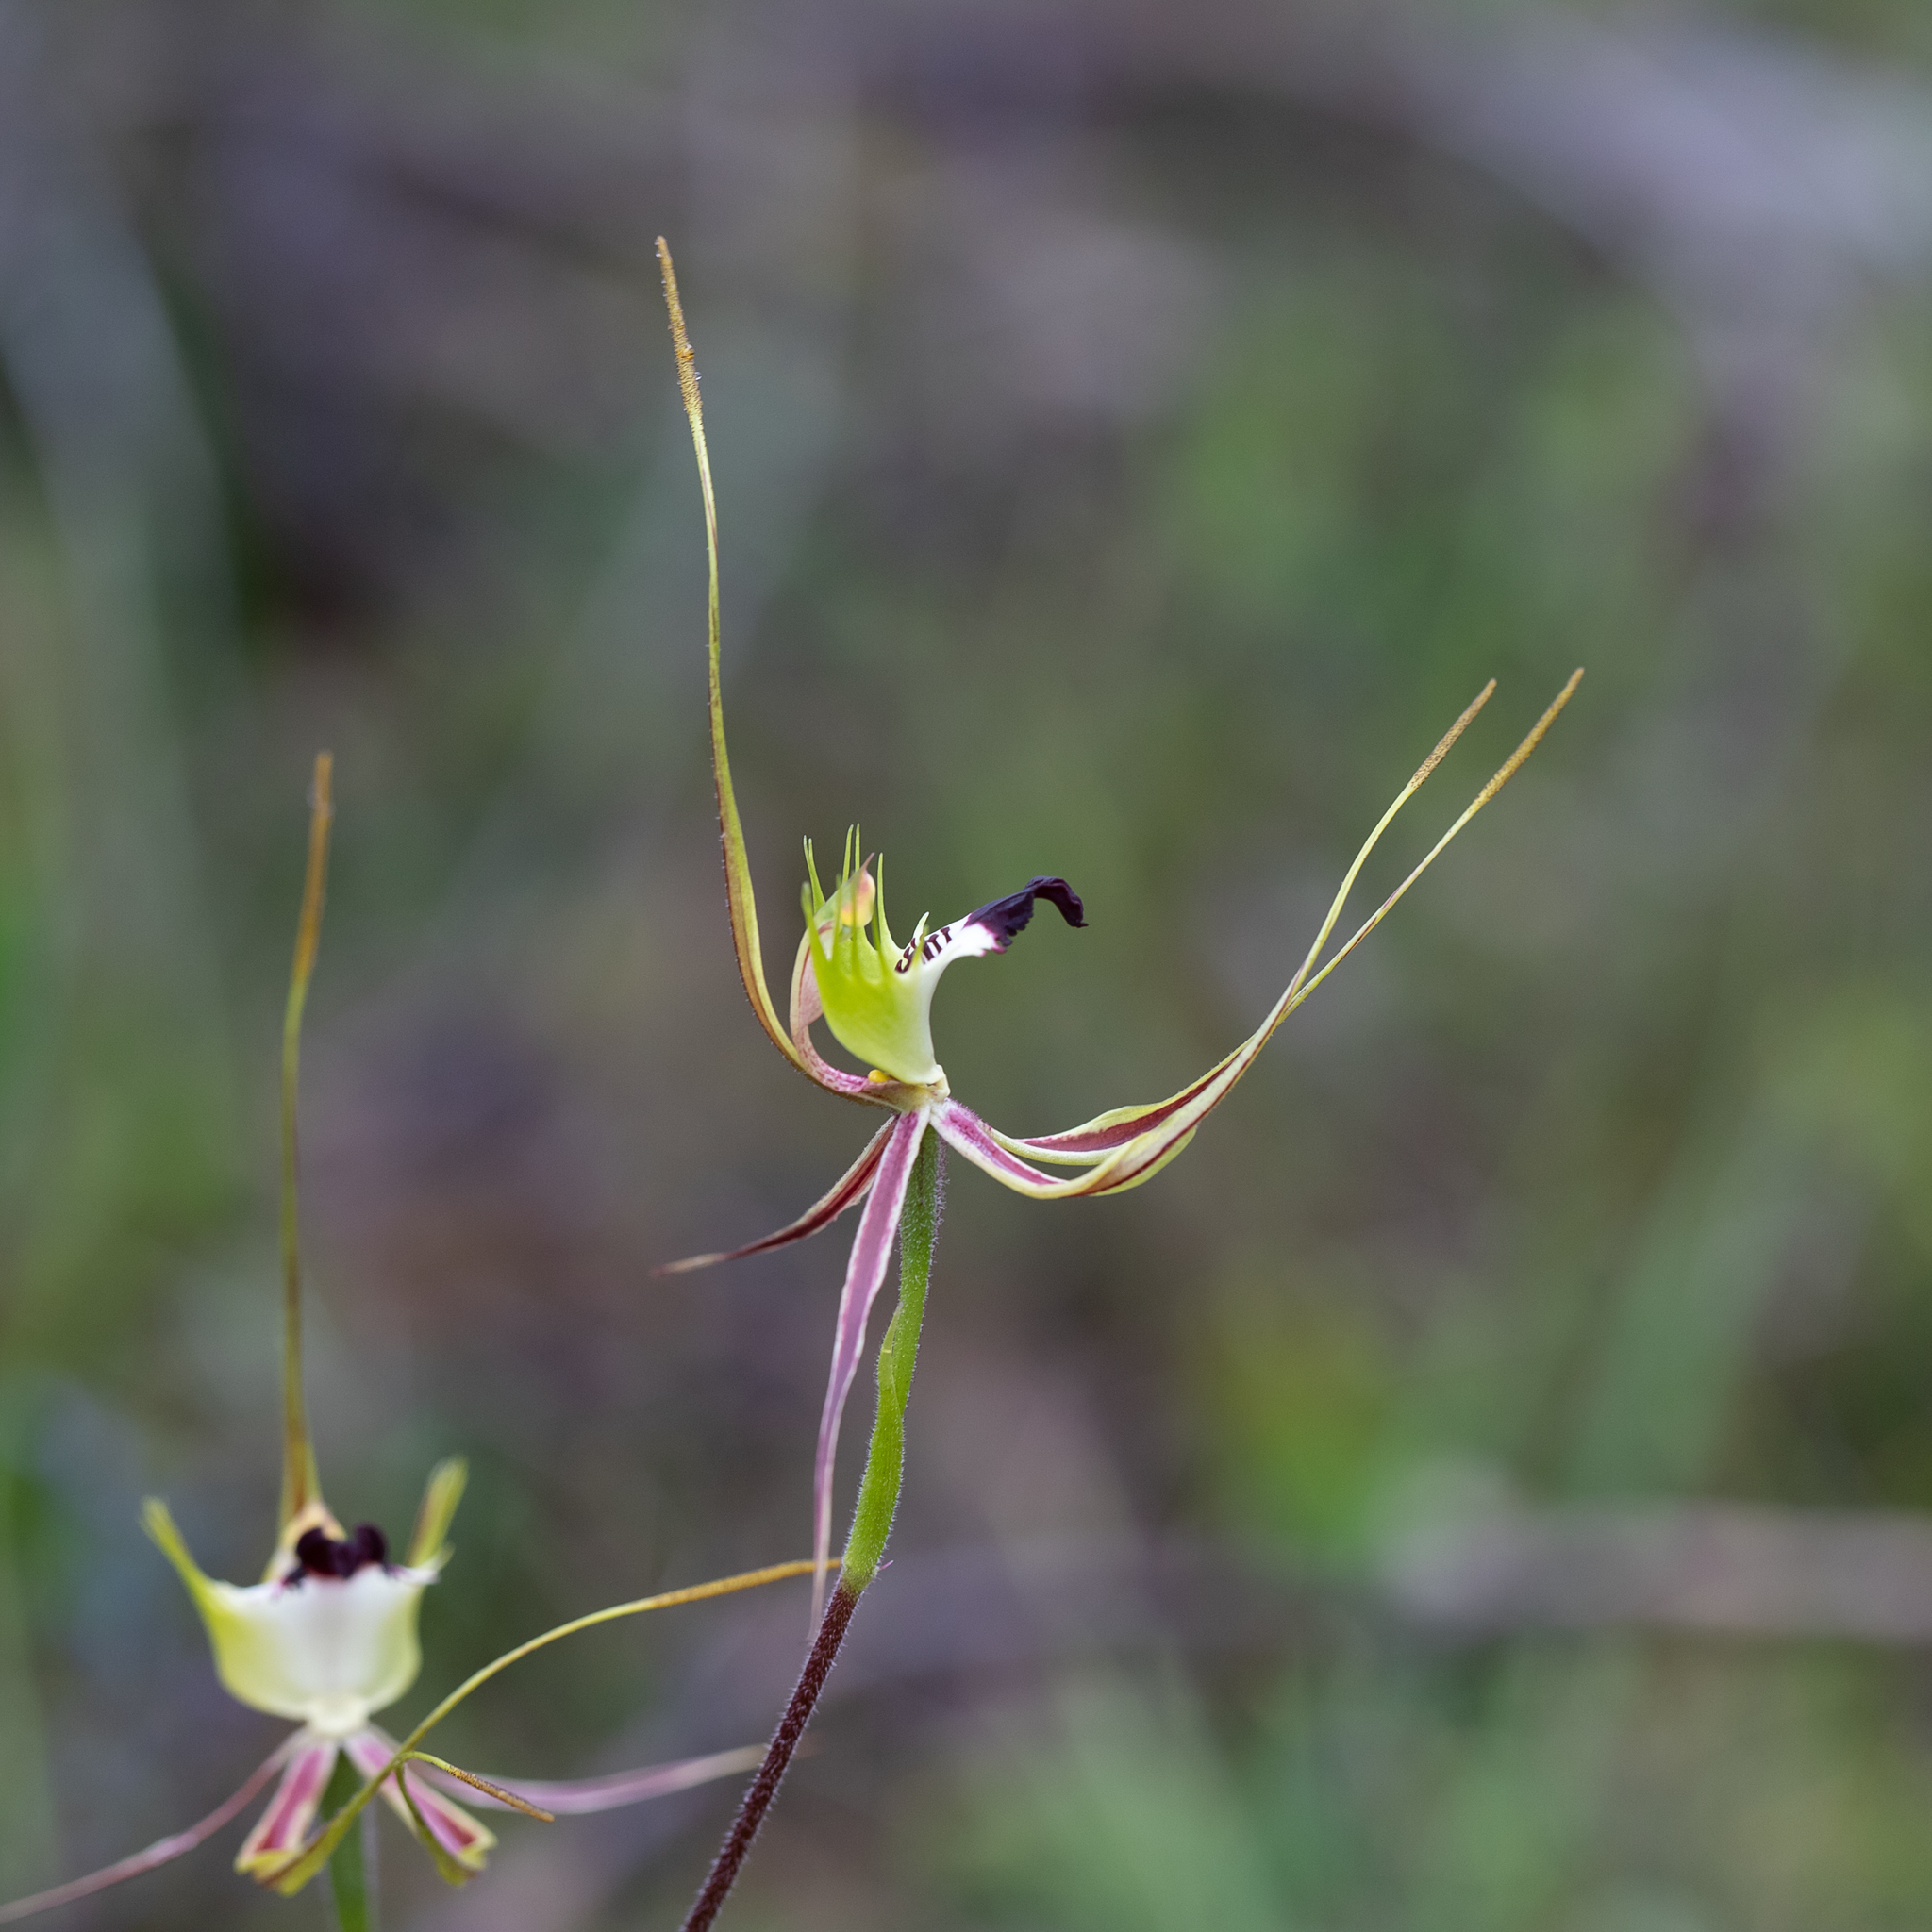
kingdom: Plantae
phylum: Tracheophyta
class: Liliopsida
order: Asparagales
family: Orchidaceae
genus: Caladenia
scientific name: Caladenia tentaculata
